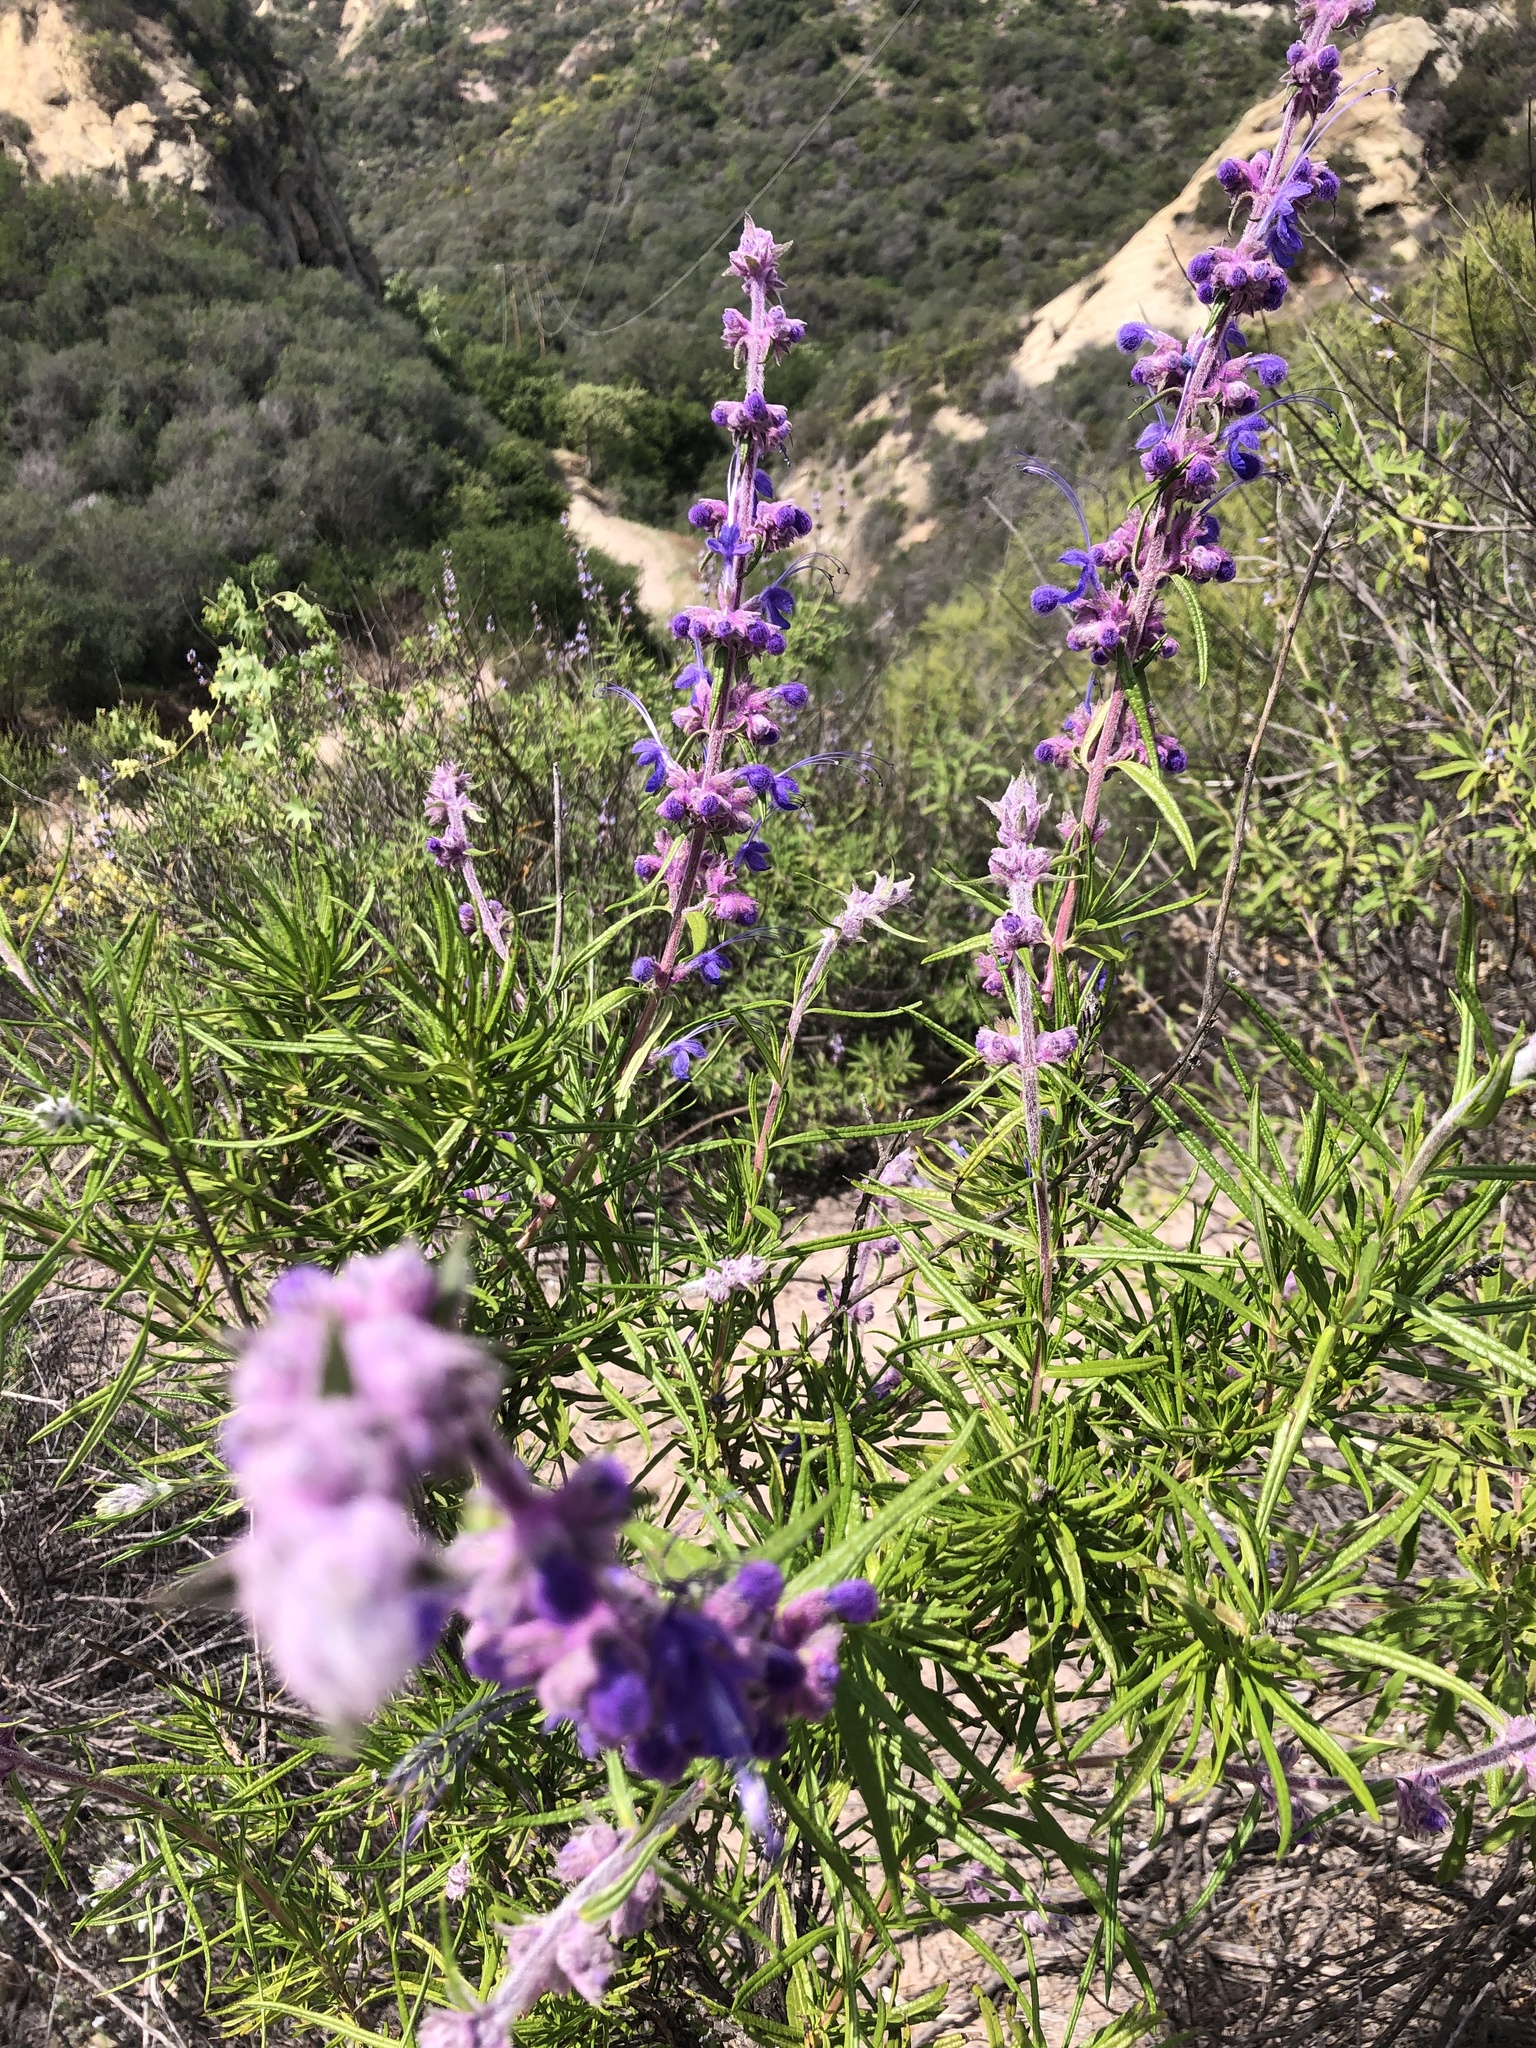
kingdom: Plantae
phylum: Tracheophyta
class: Magnoliopsida
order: Lamiales
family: Lamiaceae
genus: Trichostema
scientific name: Trichostema lanatum
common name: Woolly bluecurls
